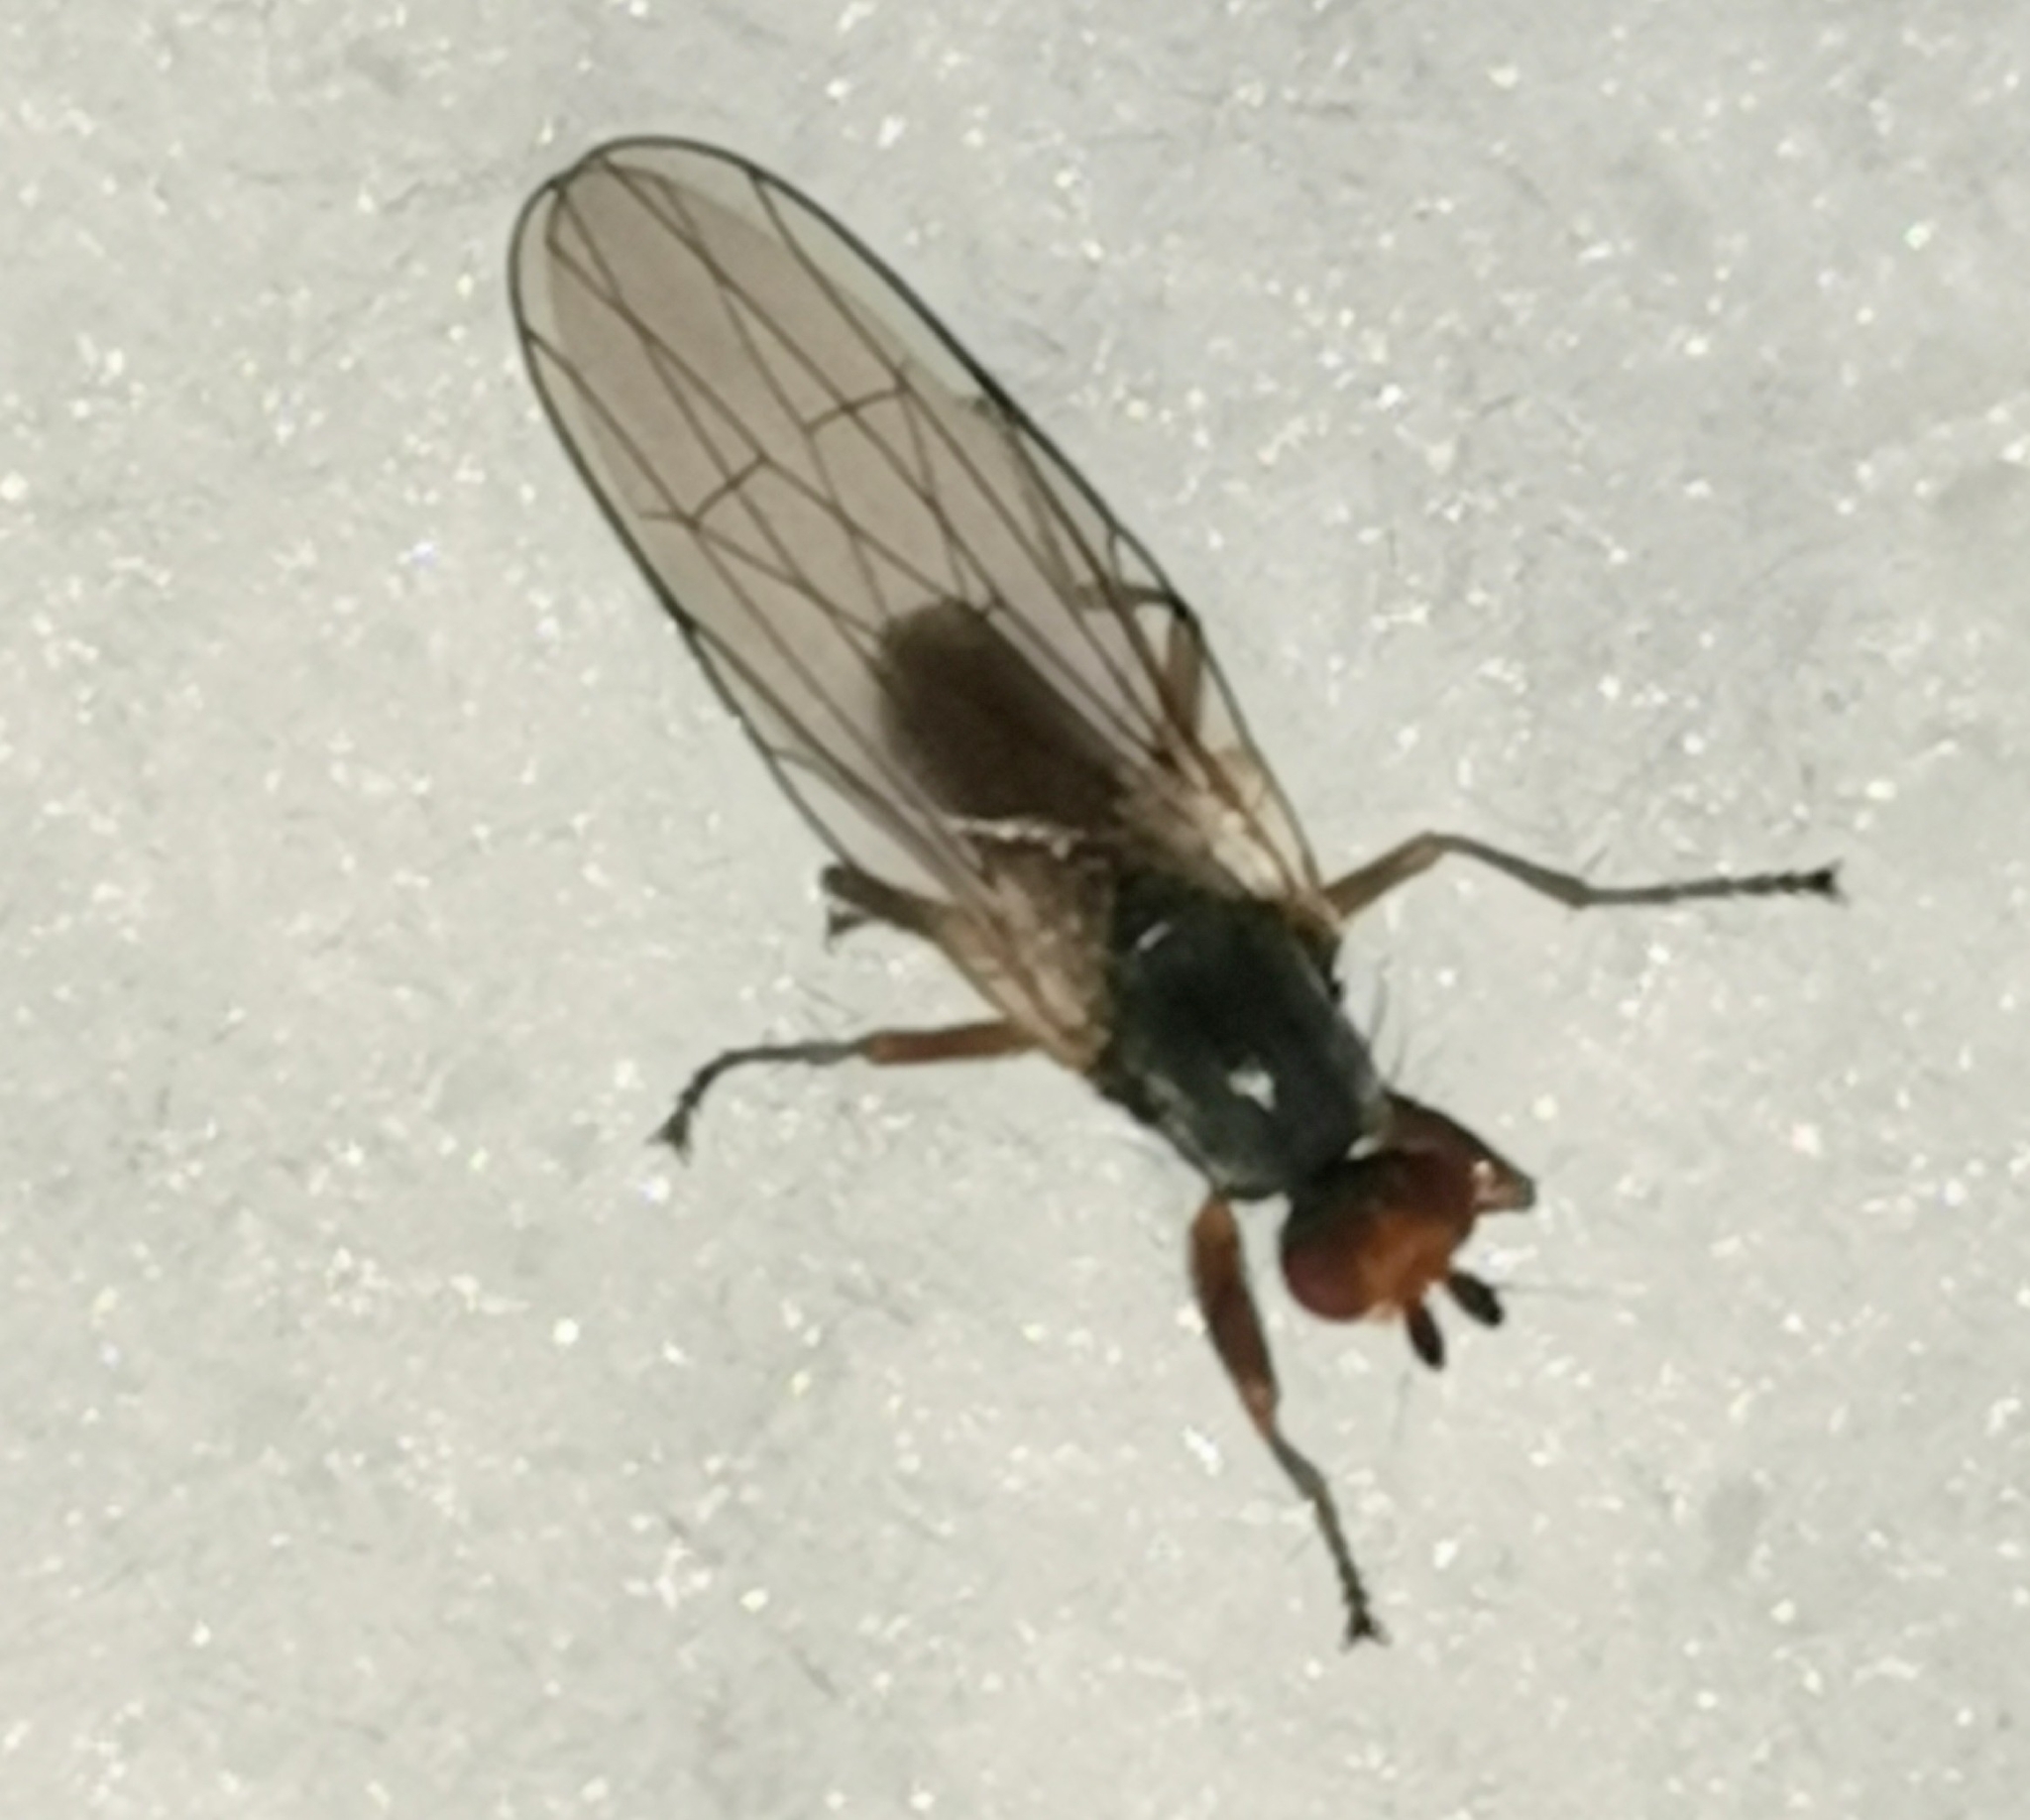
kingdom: Animalia
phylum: Arthropoda
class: Insecta
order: Diptera
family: Heleomyzidae
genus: Orbellia
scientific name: Orbellia nivicola
